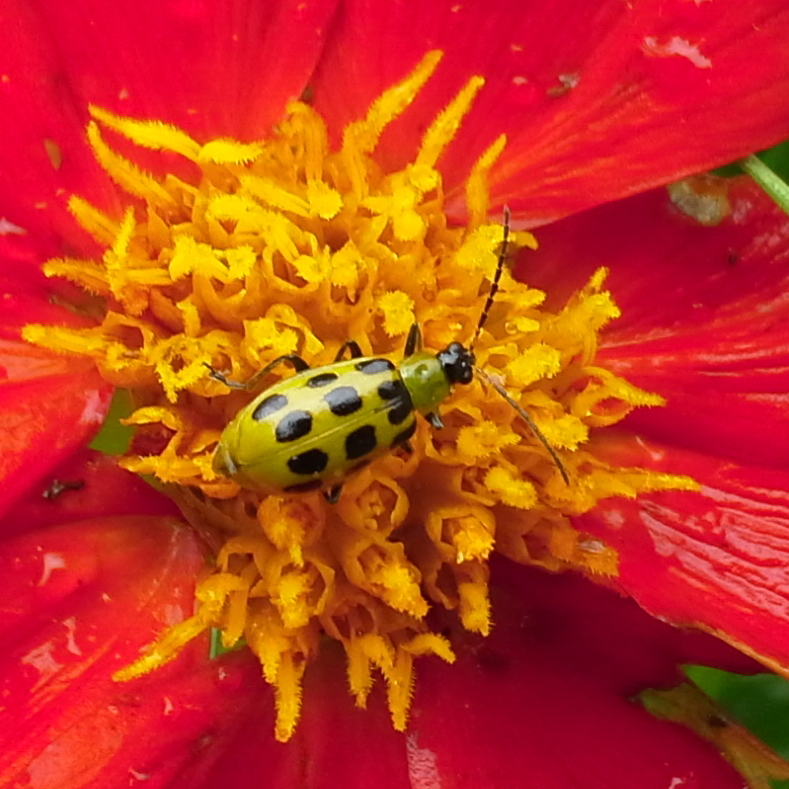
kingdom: Animalia
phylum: Arthropoda
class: Insecta
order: Coleoptera
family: Chrysomelidae
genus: Diabrotica
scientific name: Diabrotica undecimpunctata
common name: Spotted cucumber beetle
